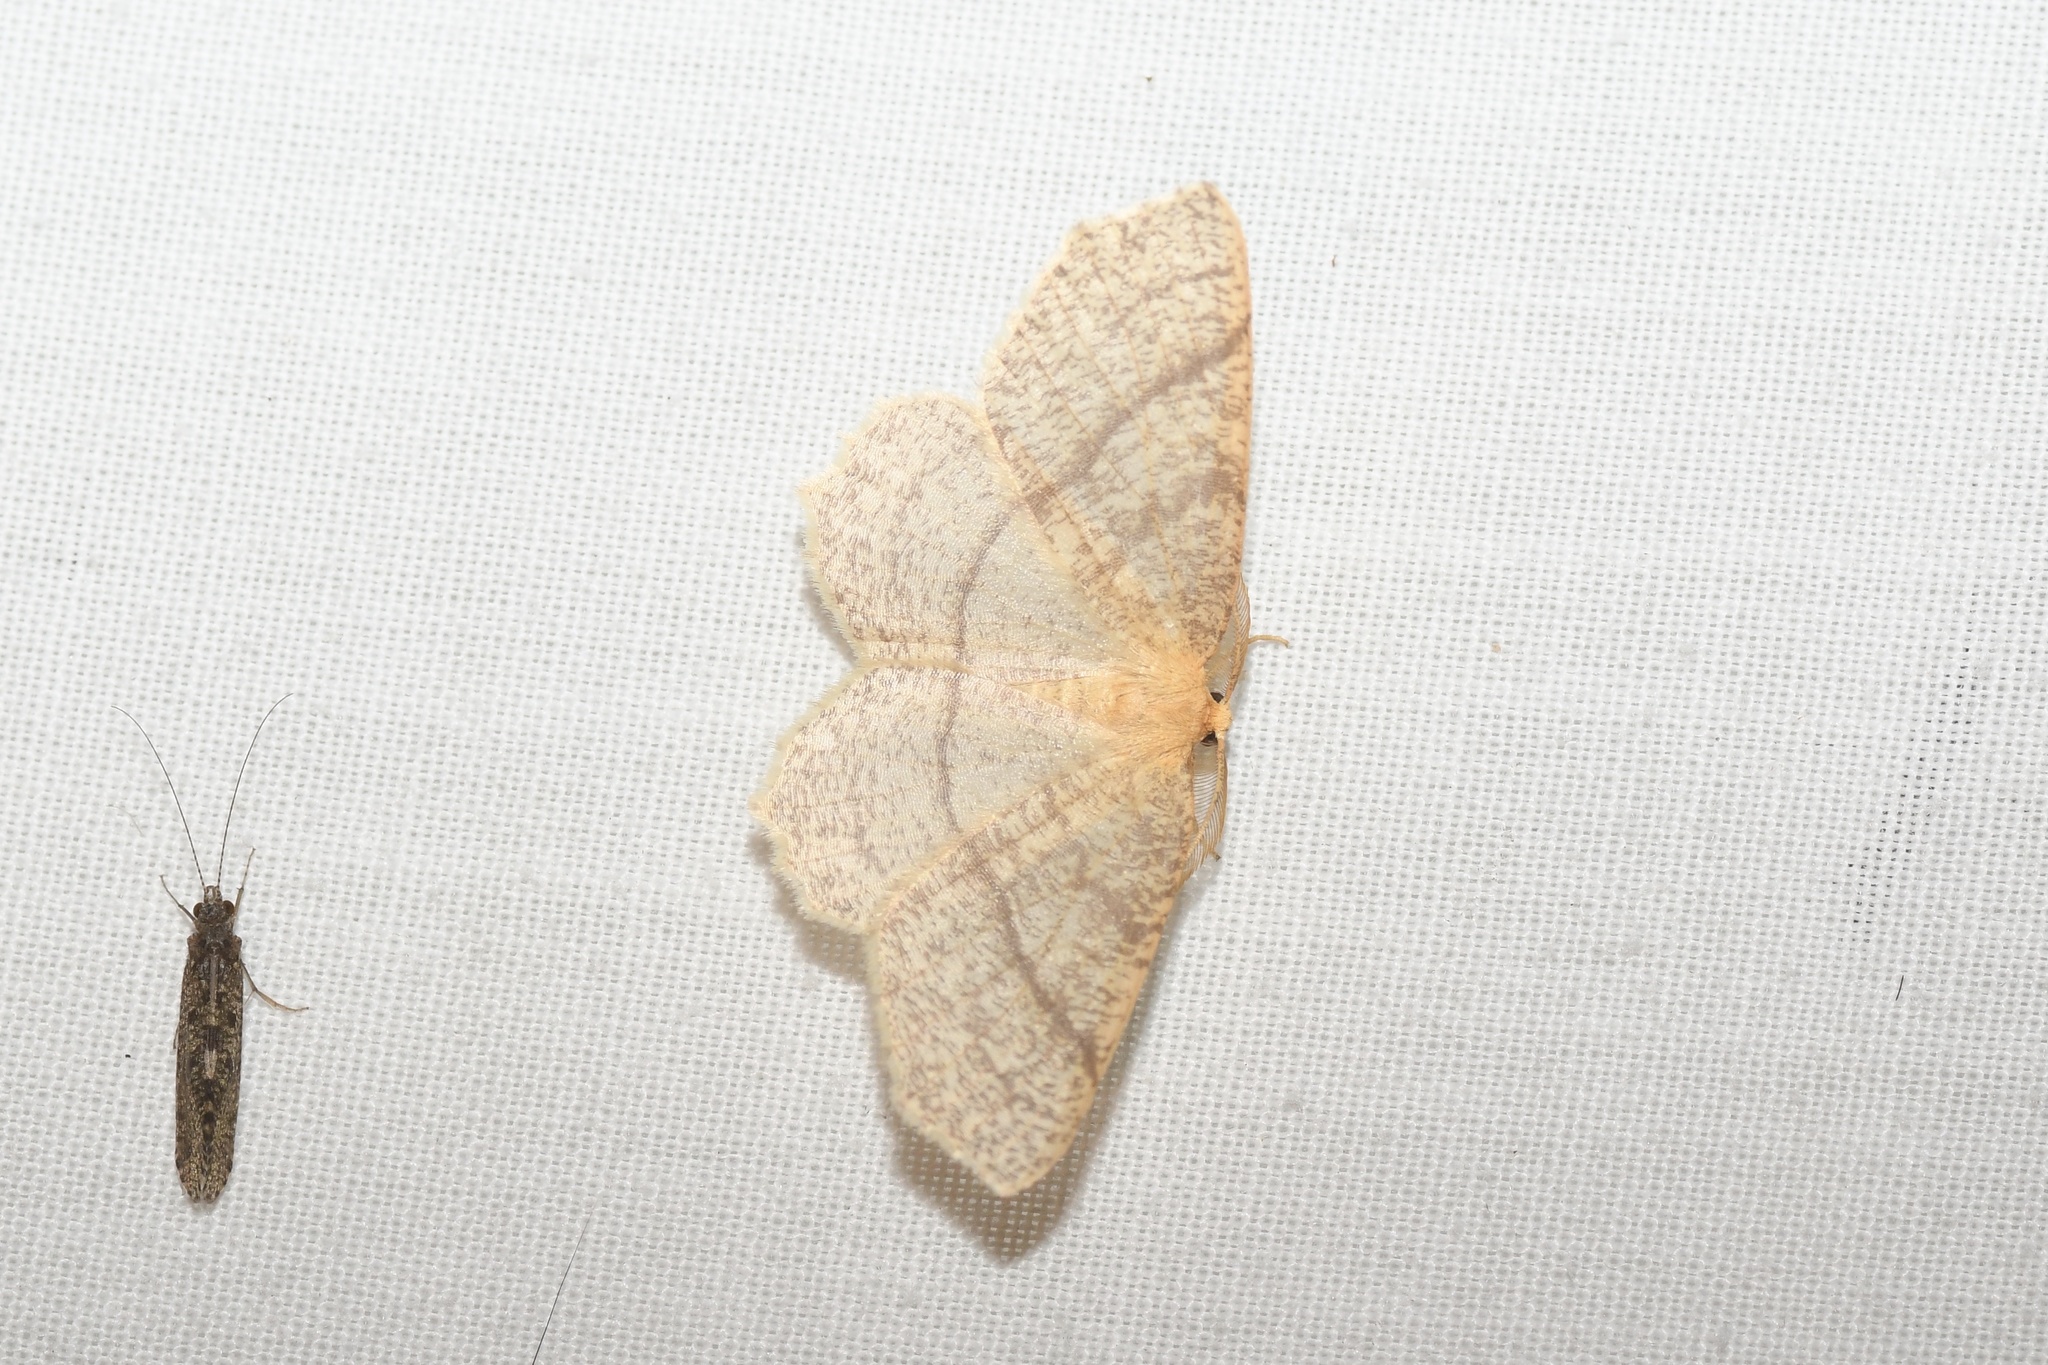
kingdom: Animalia
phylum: Arthropoda
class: Insecta
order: Lepidoptera
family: Geometridae
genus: Besma
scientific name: Besma endropiaria
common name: Straw besma
